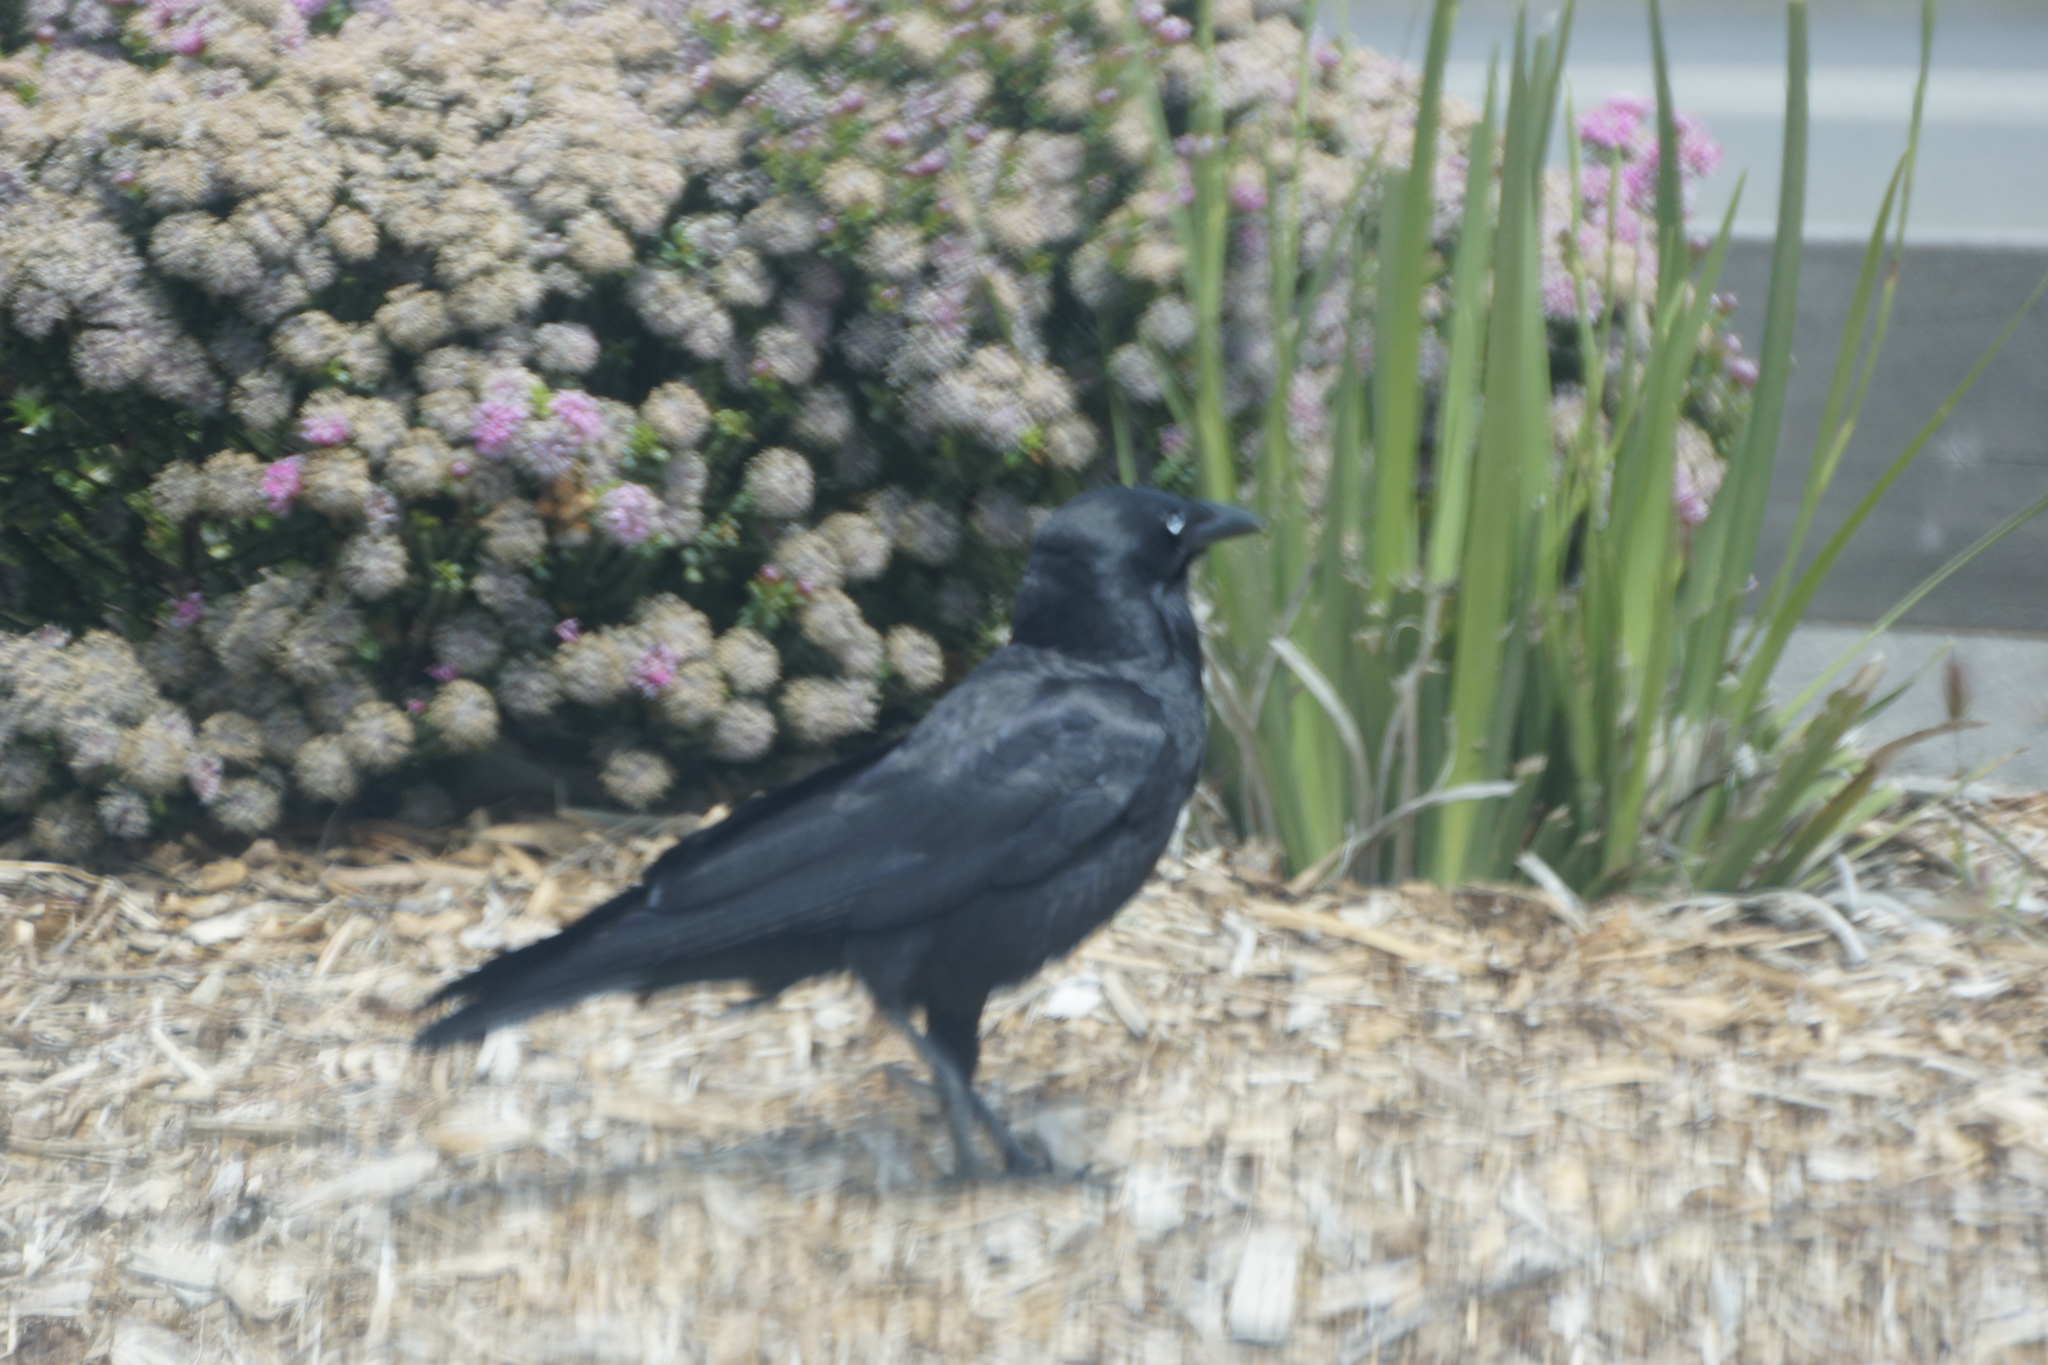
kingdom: Animalia
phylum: Chordata
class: Aves
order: Passeriformes
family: Corvidae
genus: Corvus
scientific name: Corvus mellori
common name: Little raven
